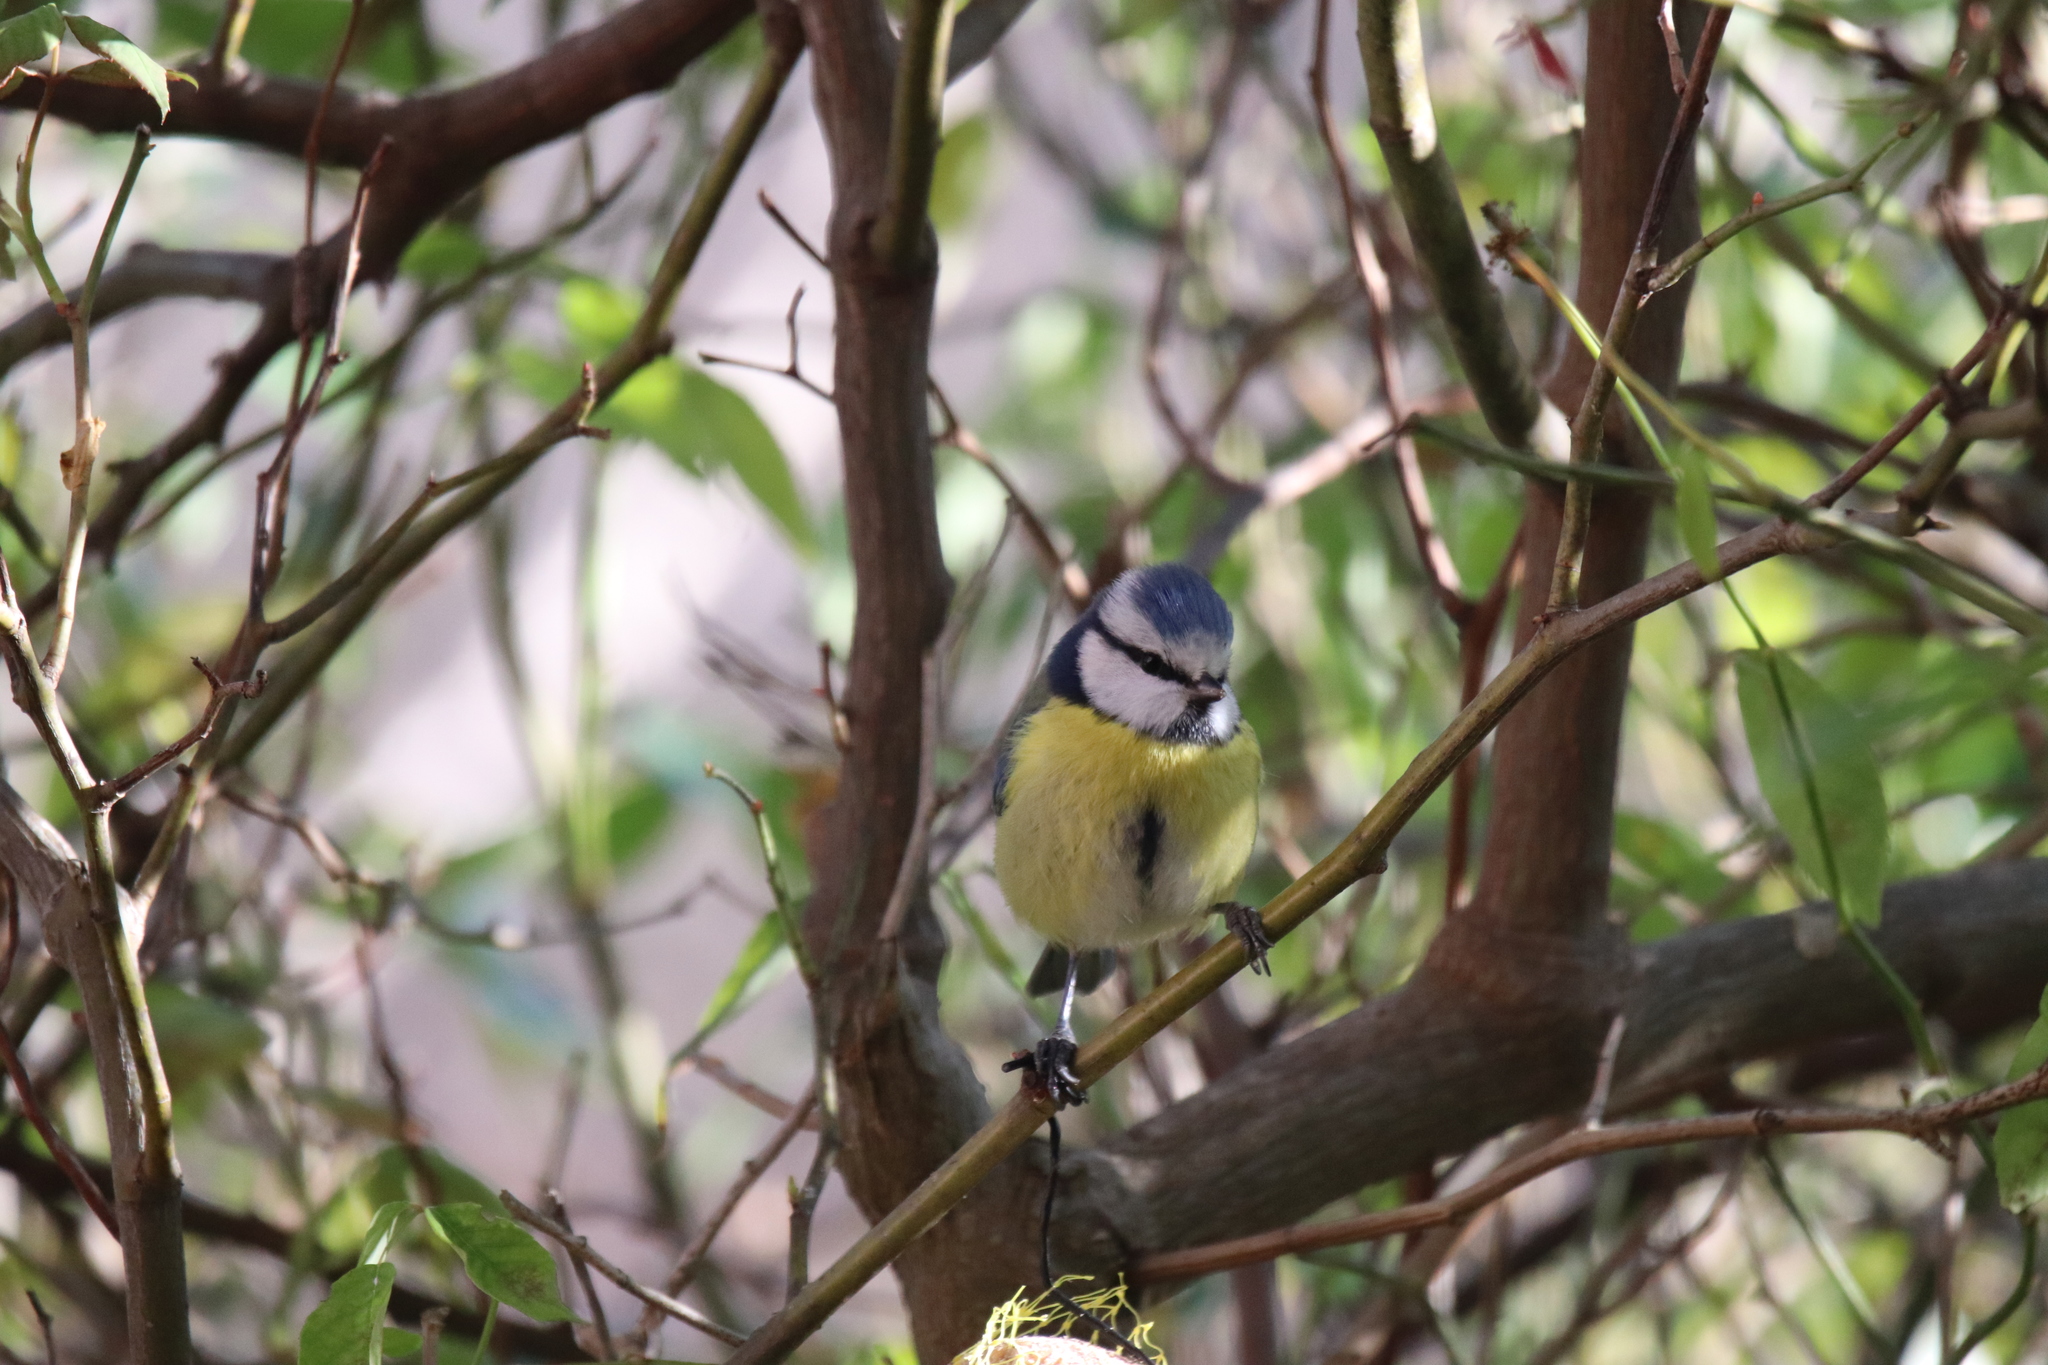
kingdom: Animalia
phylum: Chordata
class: Aves
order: Passeriformes
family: Paridae
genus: Cyanistes
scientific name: Cyanistes caeruleus
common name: Eurasian blue tit
